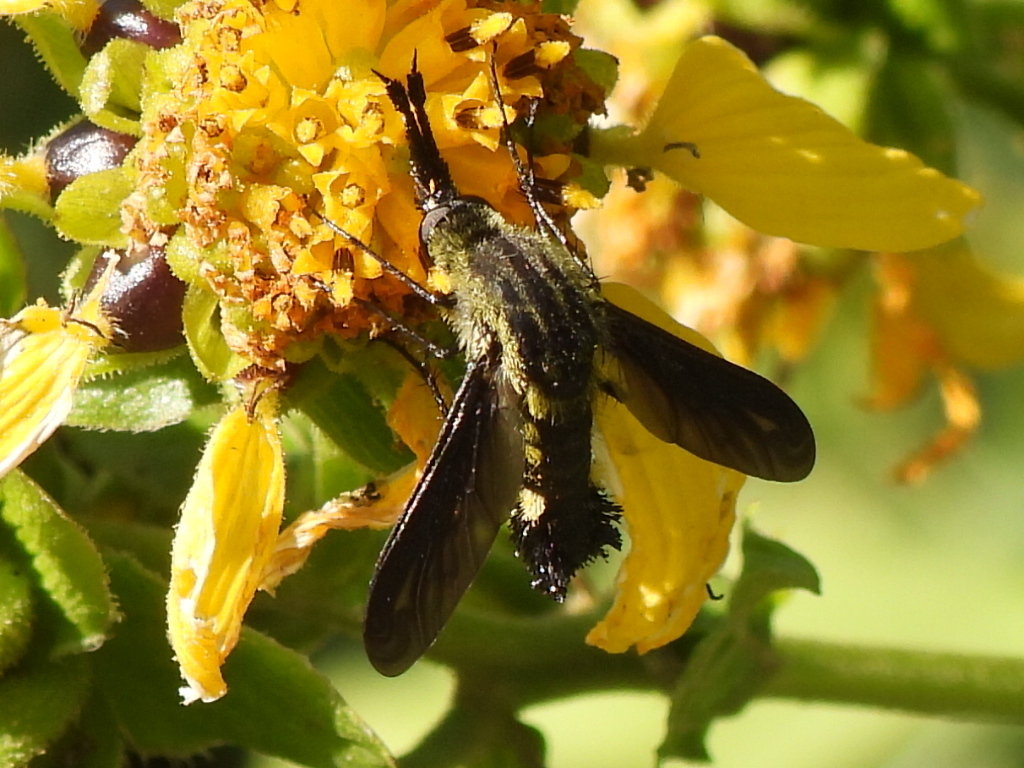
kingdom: Animalia
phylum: Arthropoda
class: Insecta
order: Diptera
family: Bombyliidae
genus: Lepidophora
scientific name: Lepidophora lepidocera
